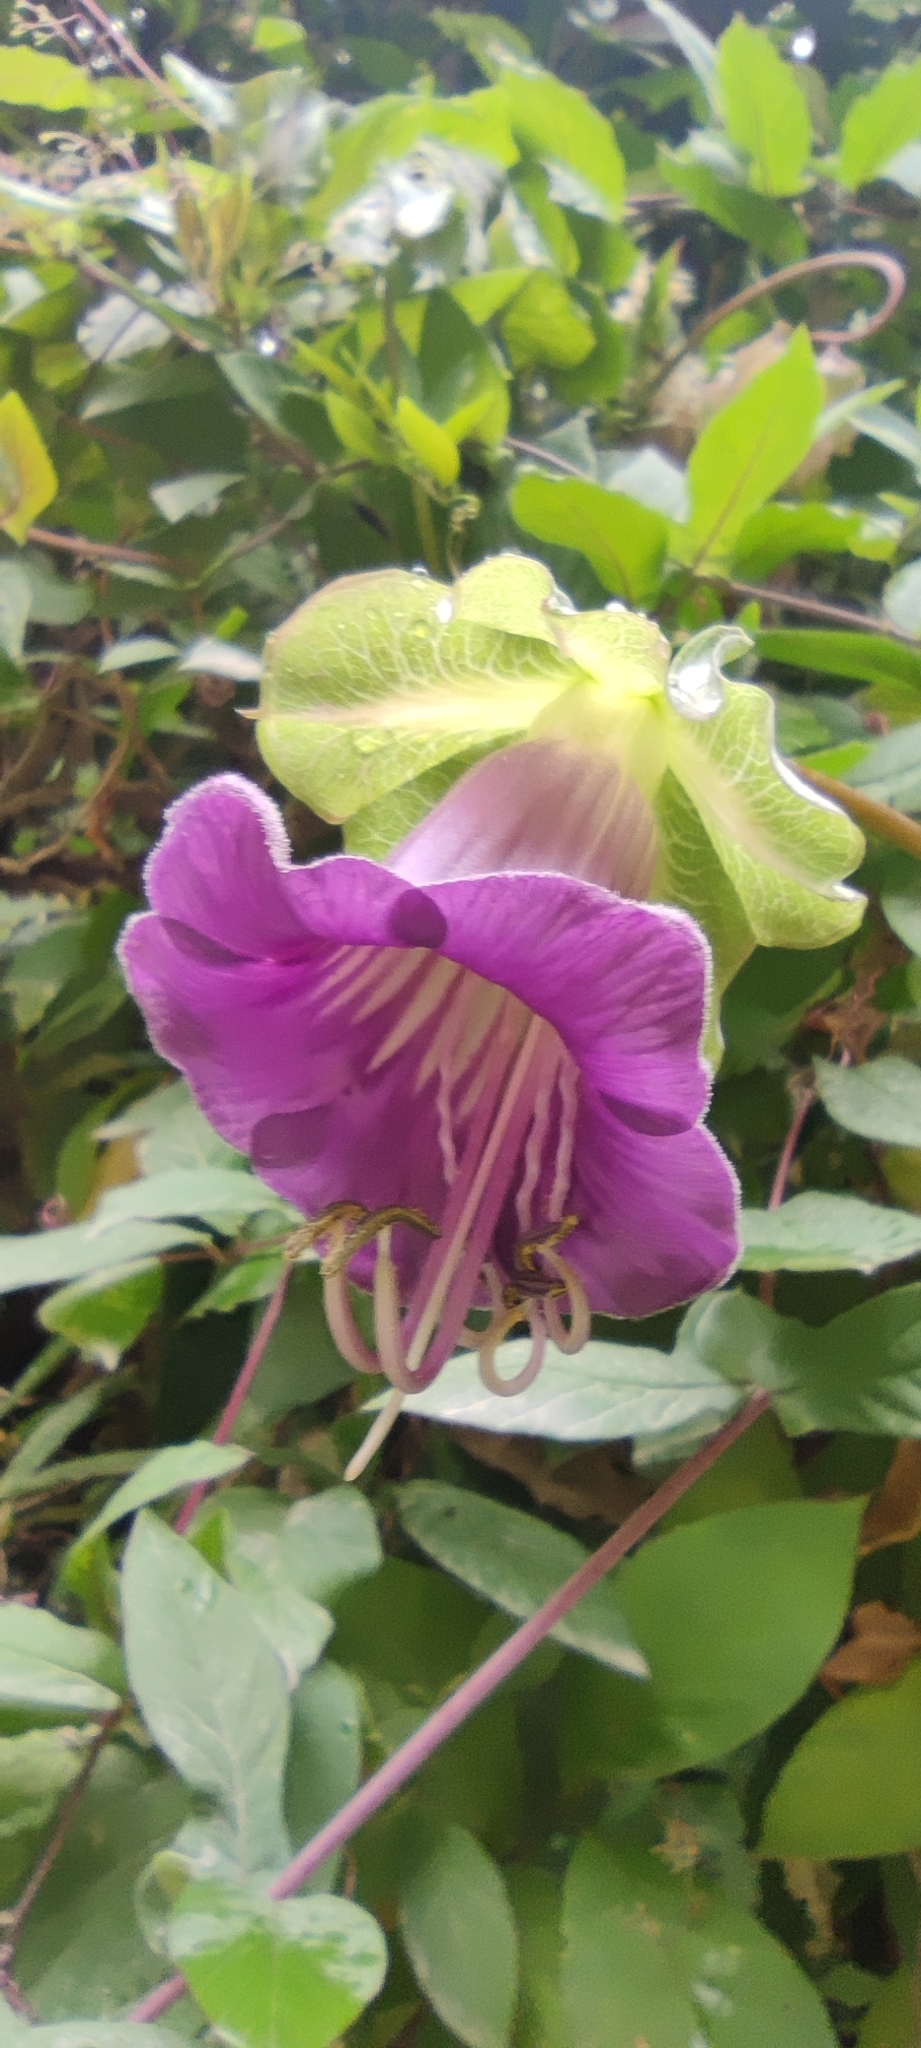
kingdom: Plantae
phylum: Tracheophyta
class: Magnoliopsida
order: Ericales
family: Polemoniaceae
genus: Cobaea
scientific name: Cobaea scandens
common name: Cup-and-saucer-vine
